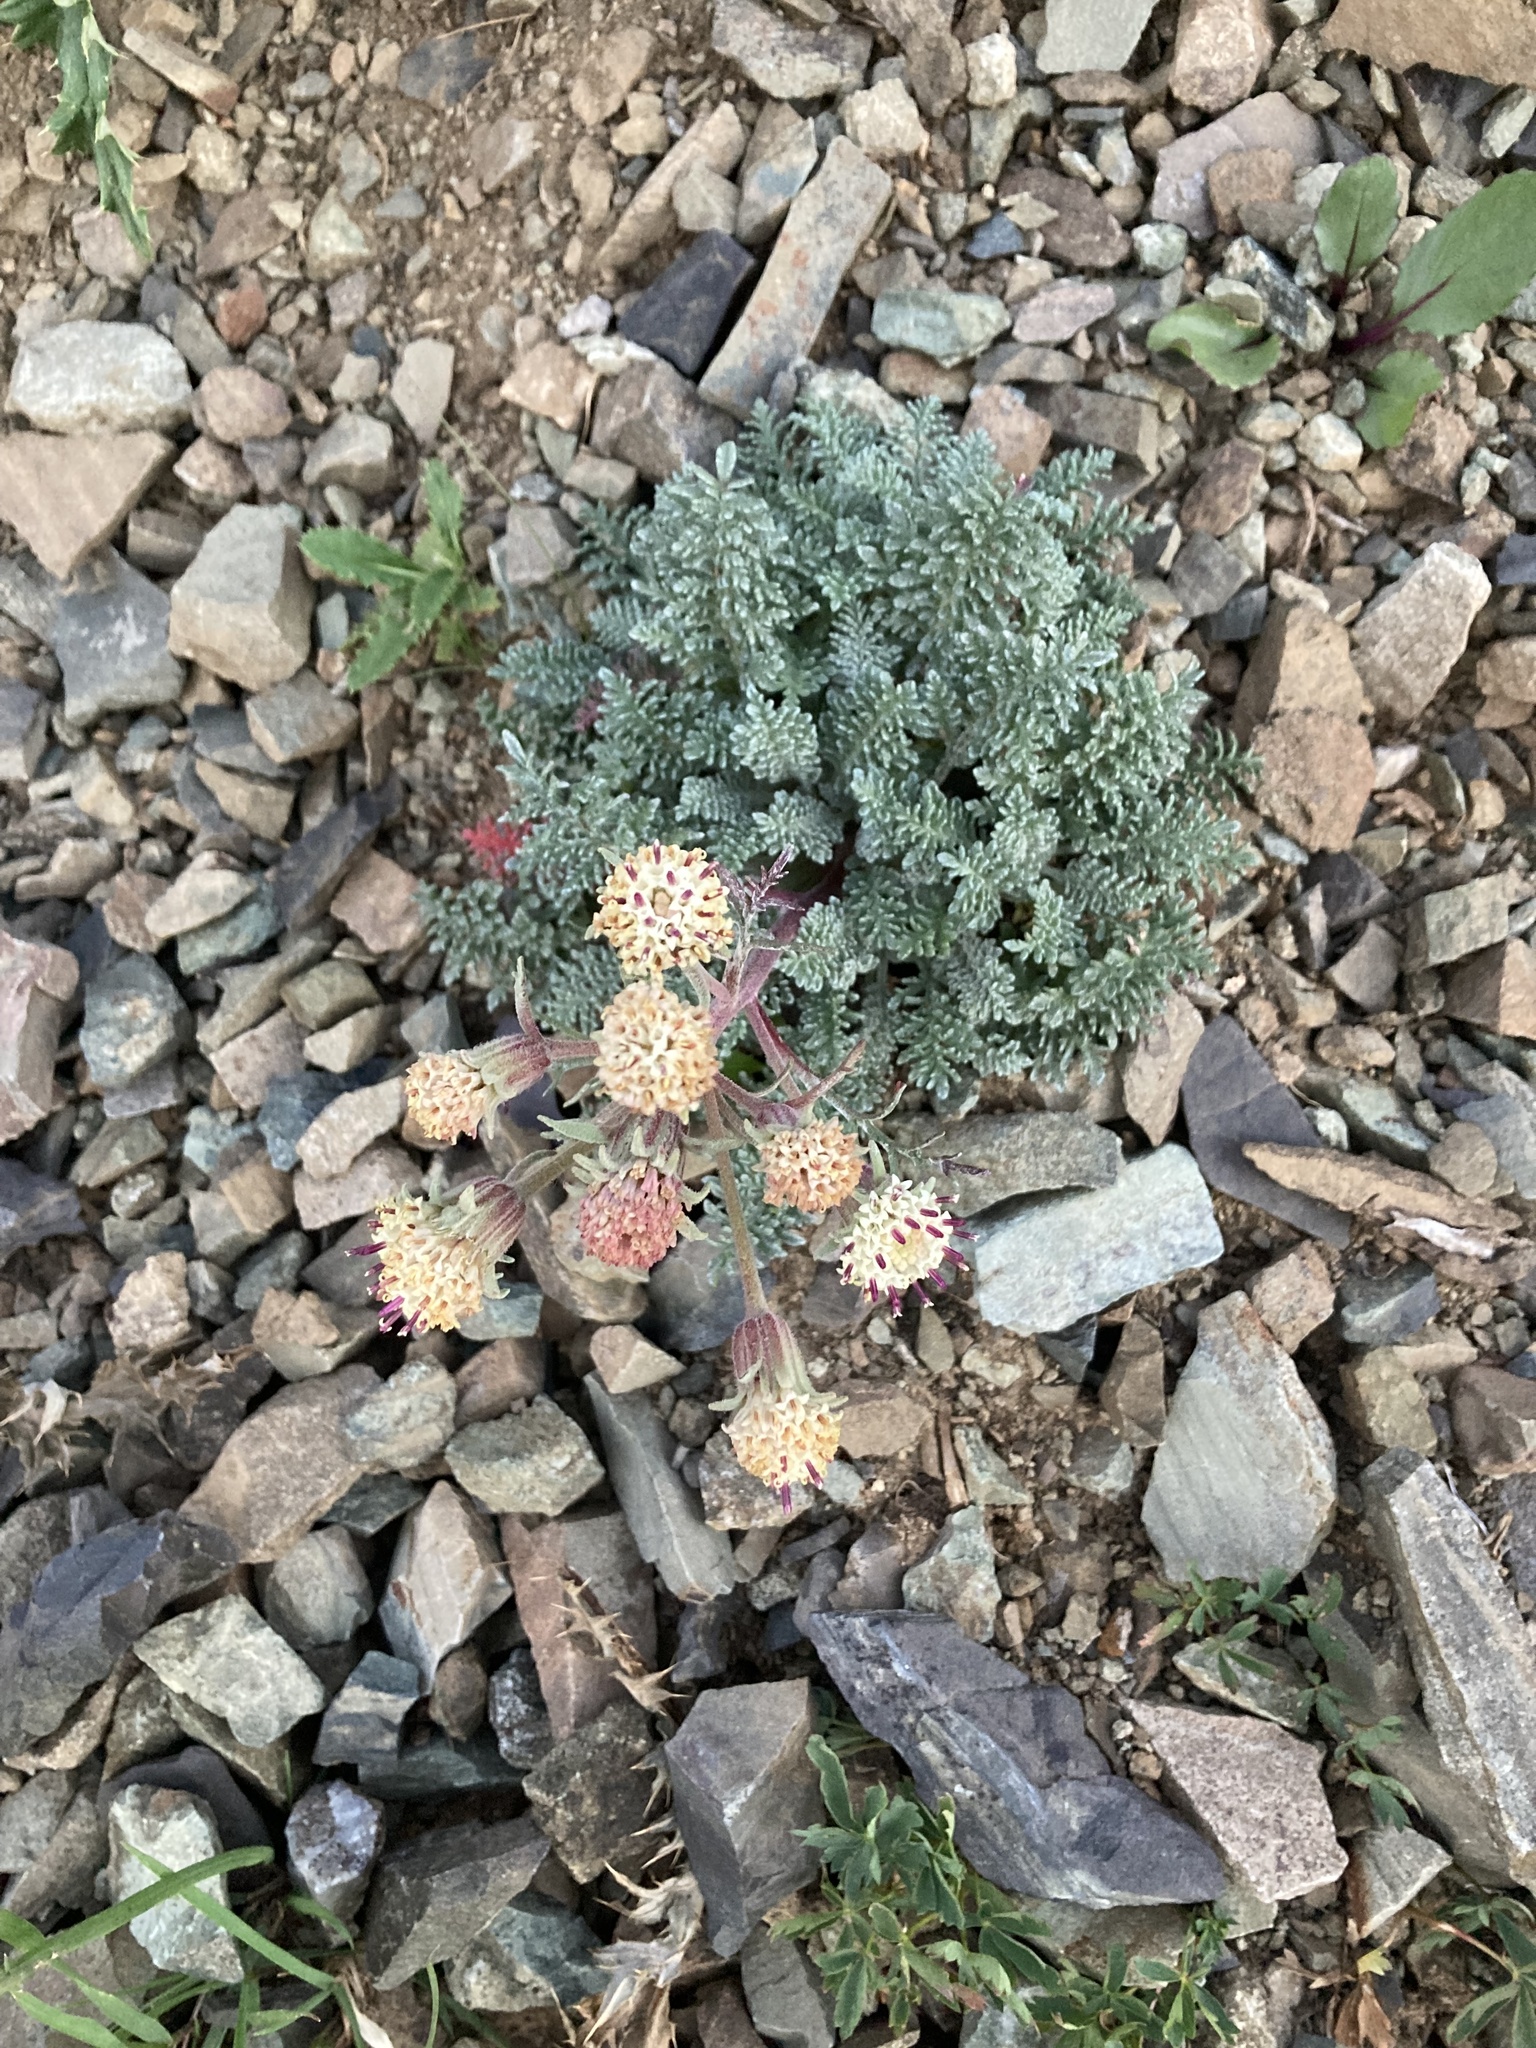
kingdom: Plantae
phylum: Tracheophyta
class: Magnoliopsida
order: Asterales
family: Asteraceae
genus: Chaenactis
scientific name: Chaenactis douglasii
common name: Hoary pincushion
